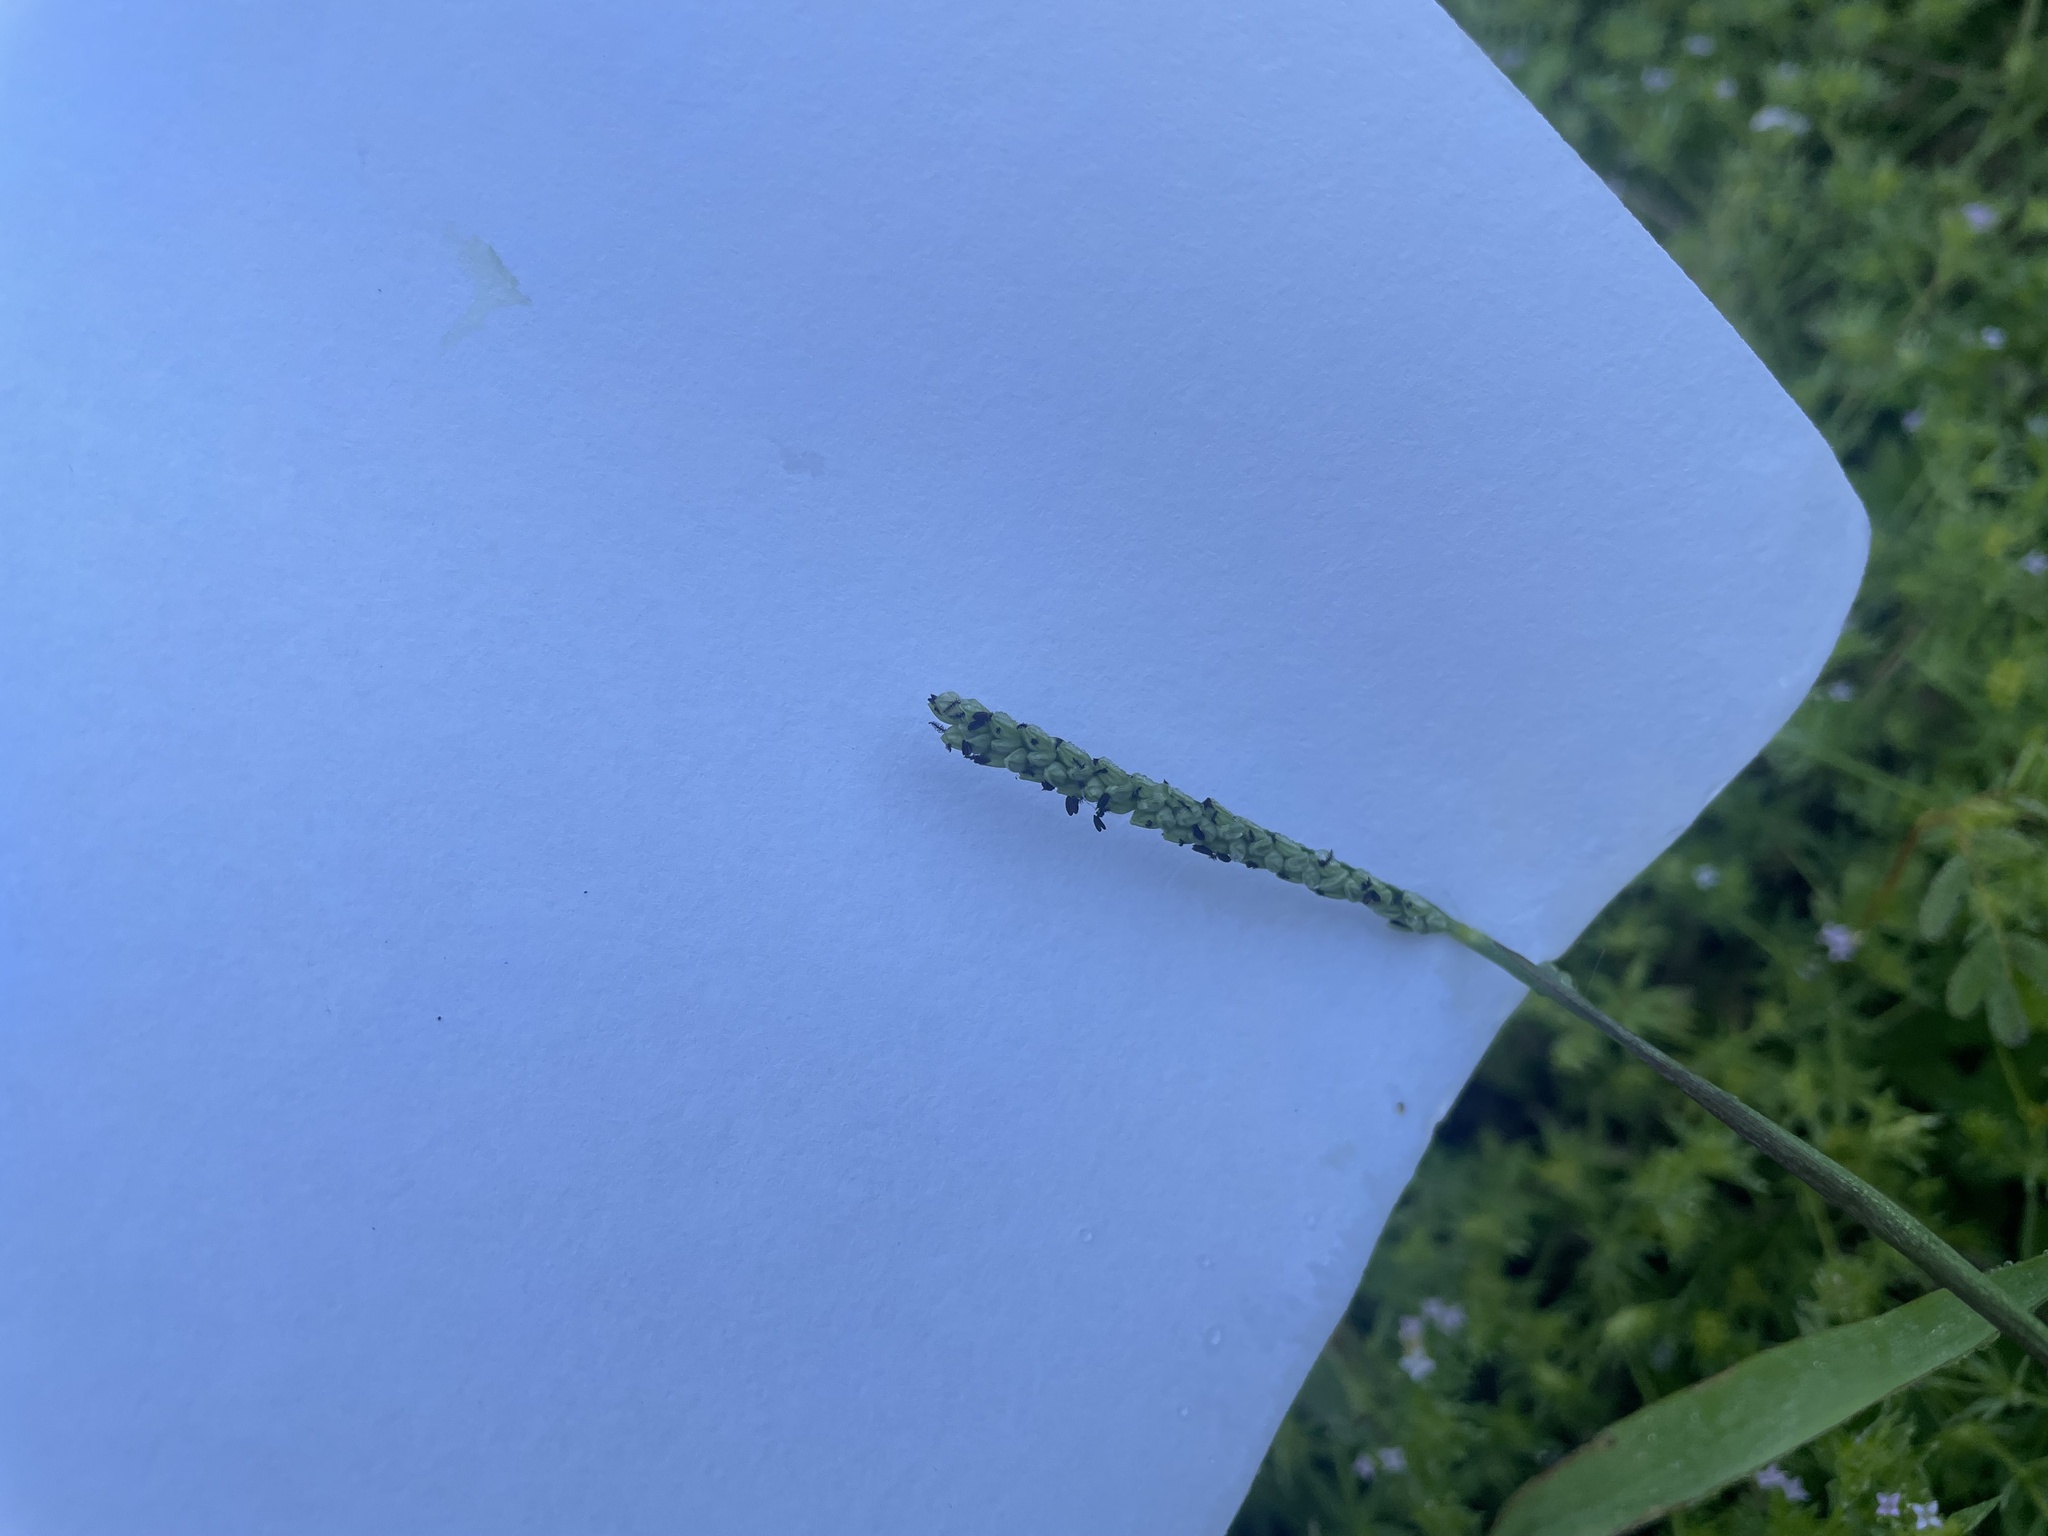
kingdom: Plantae
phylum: Tracheophyta
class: Liliopsida
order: Poales
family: Poaceae
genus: Paspalum
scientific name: Paspalum pubiflorum
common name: Hairy-seed paspalum
